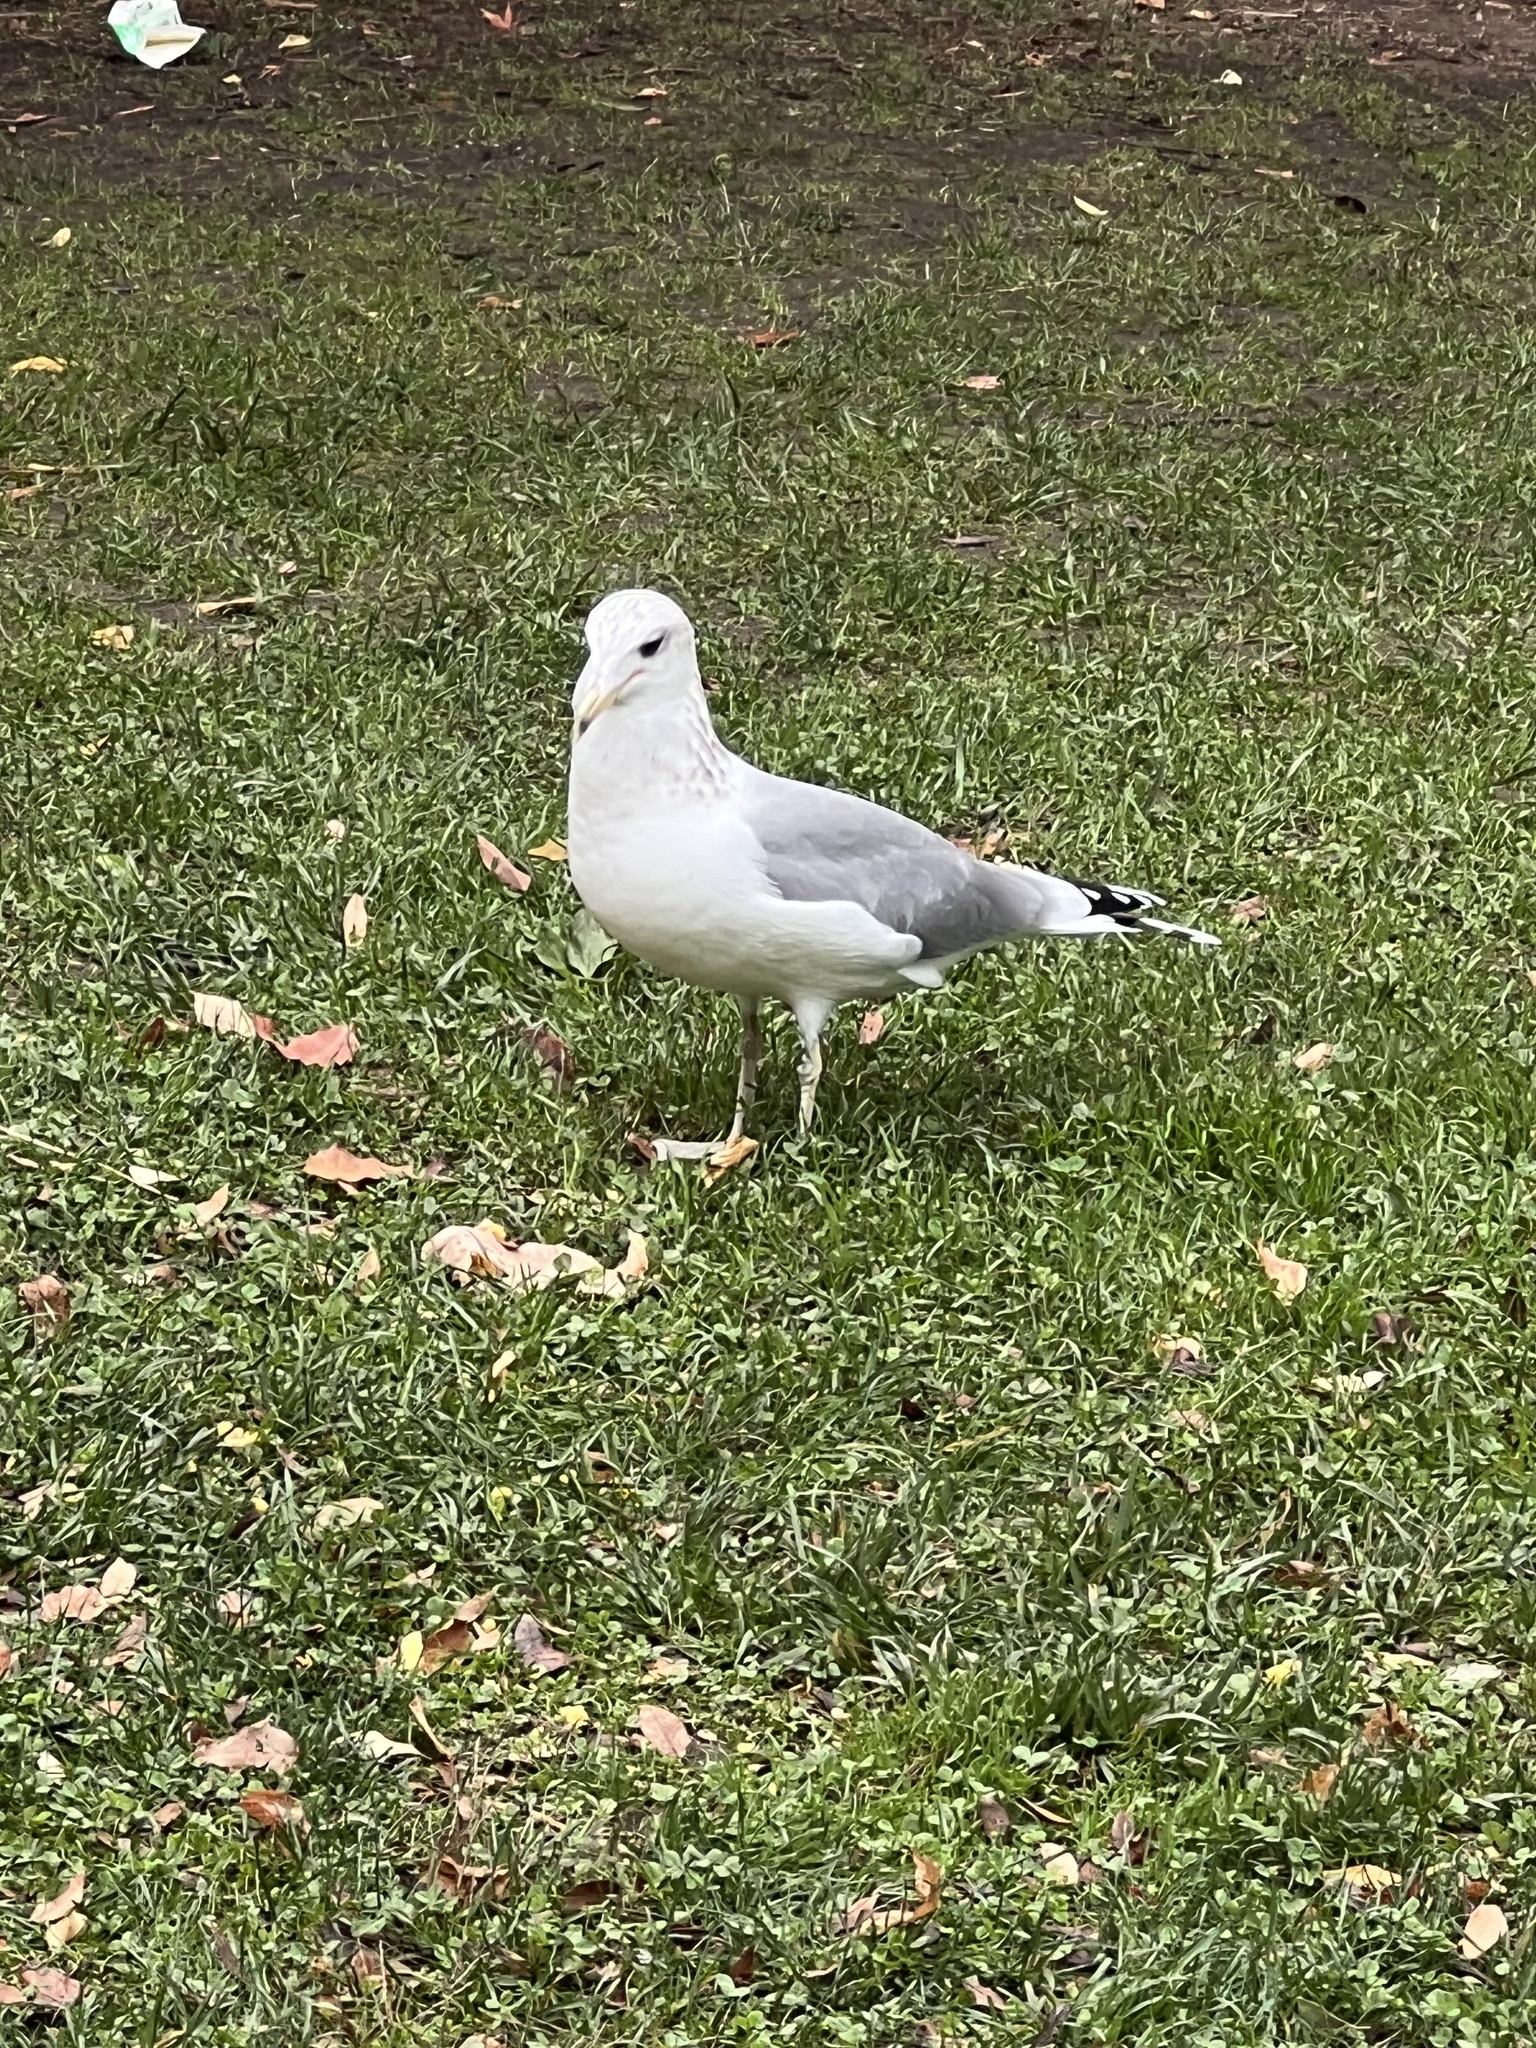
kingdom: Animalia
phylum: Chordata
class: Aves
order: Charadriiformes
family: Laridae
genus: Larus
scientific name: Larus californicus
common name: California gull
